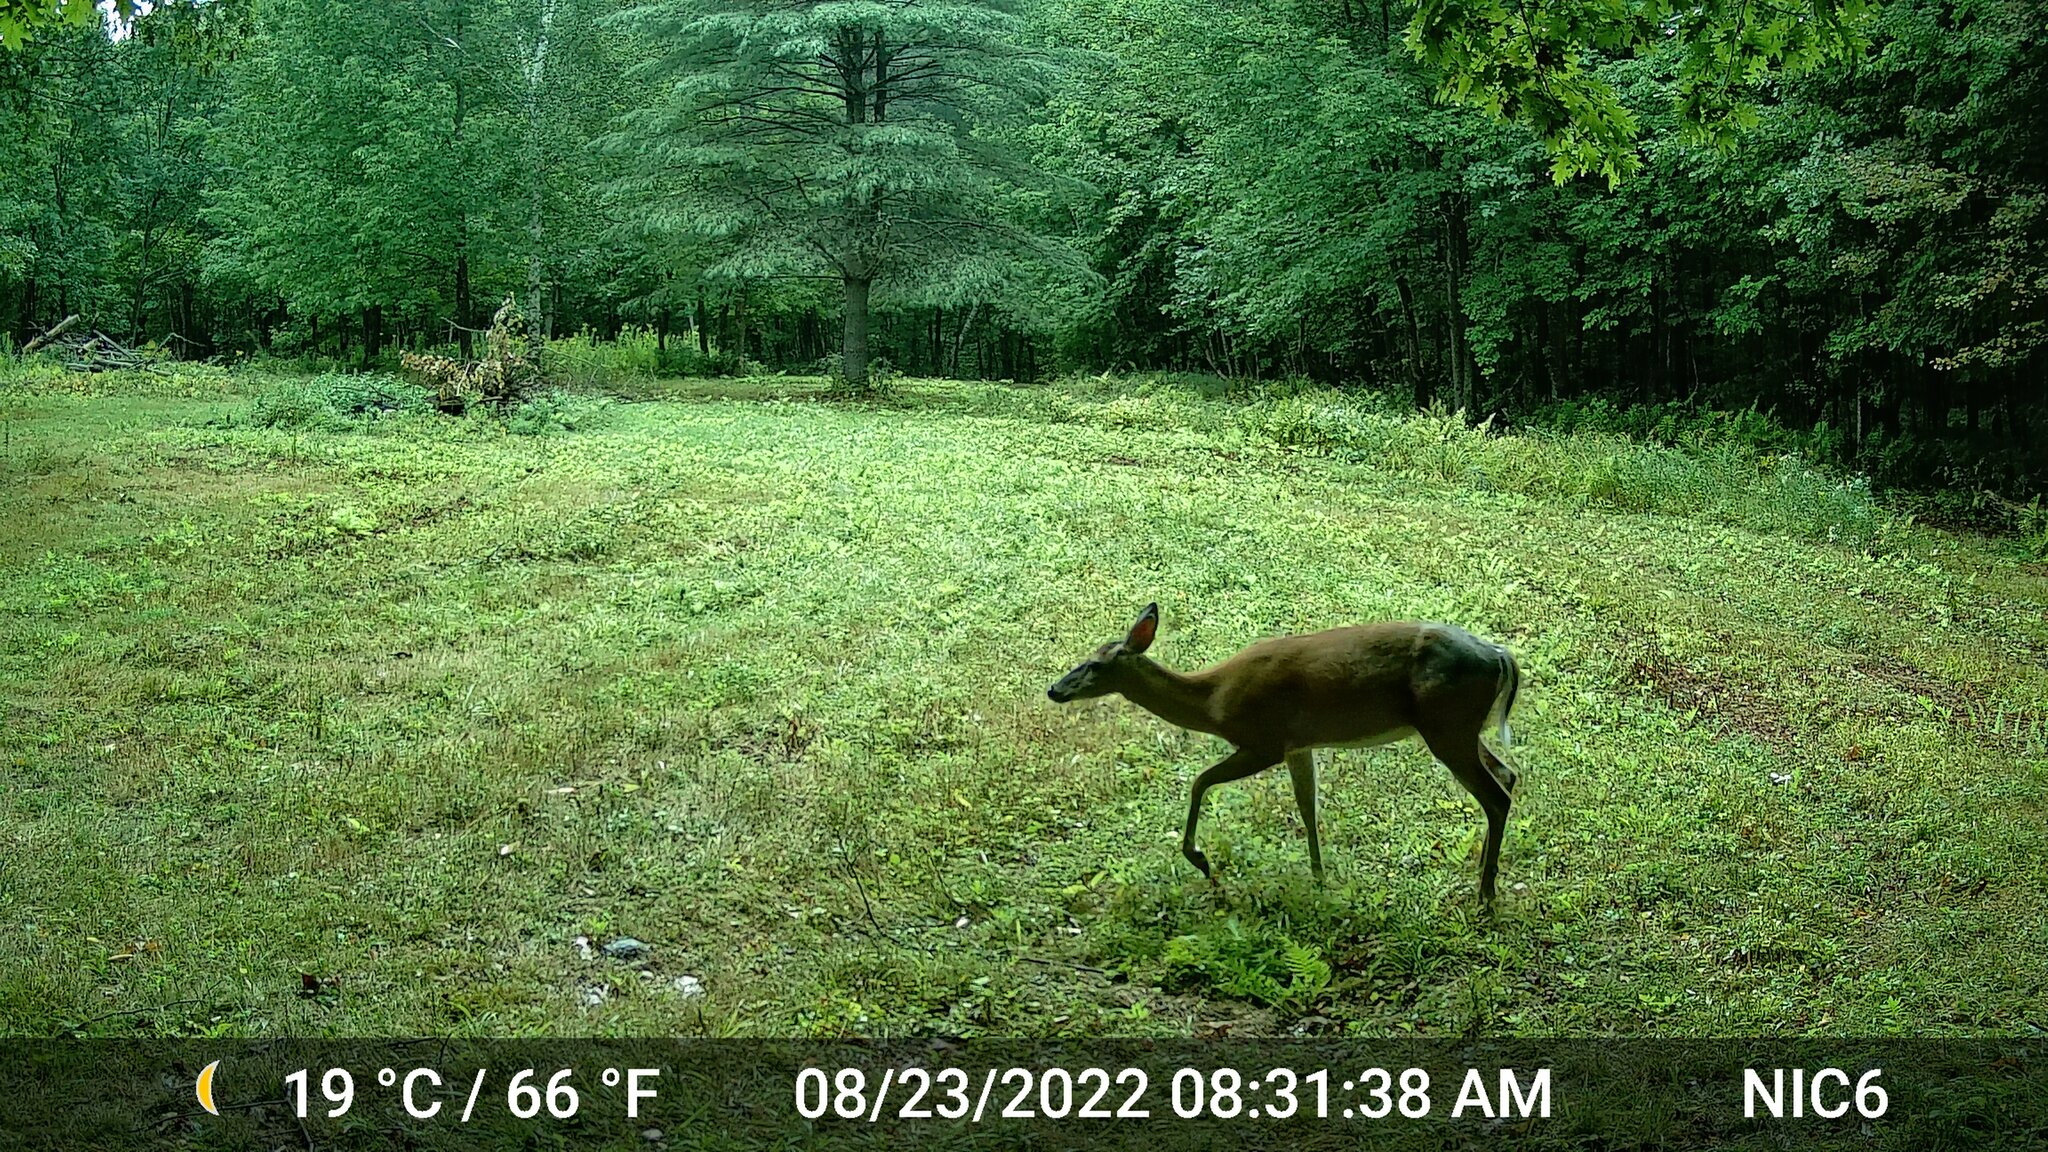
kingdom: Animalia
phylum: Chordata
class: Mammalia
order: Artiodactyla
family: Cervidae
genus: Odocoileus
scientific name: Odocoileus virginianus
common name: White-tailed deer
